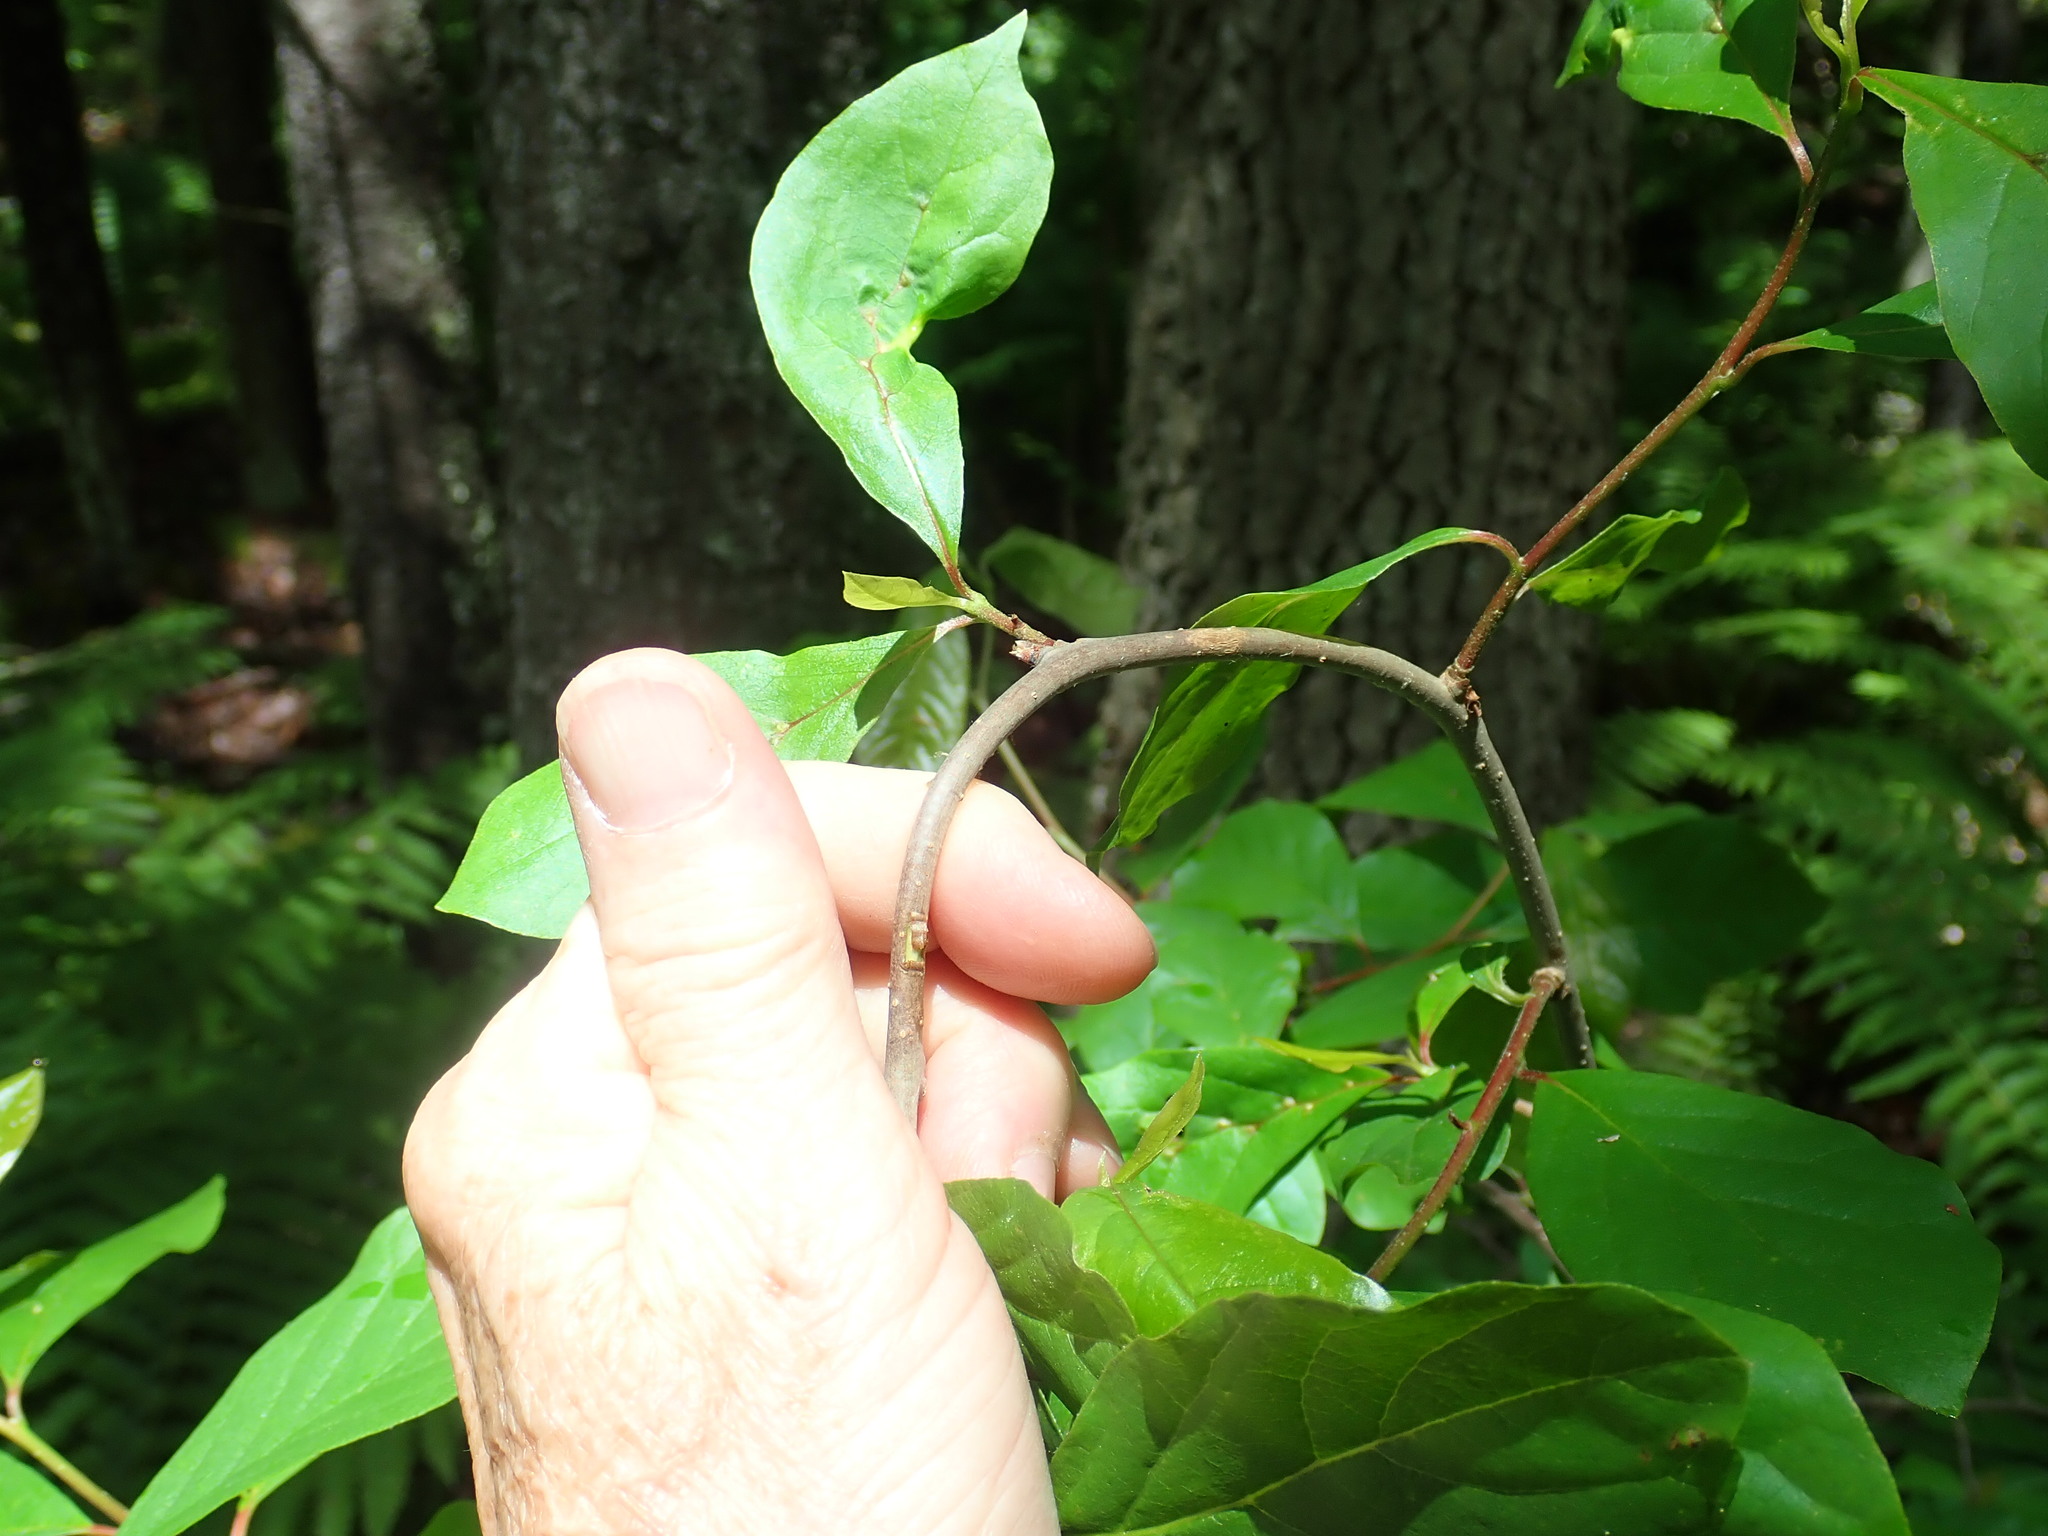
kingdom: Plantae
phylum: Tracheophyta
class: Magnoliopsida
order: Cornales
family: Nyssaceae
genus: Nyssa
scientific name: Nyssa sylvatica
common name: Black tupelo
